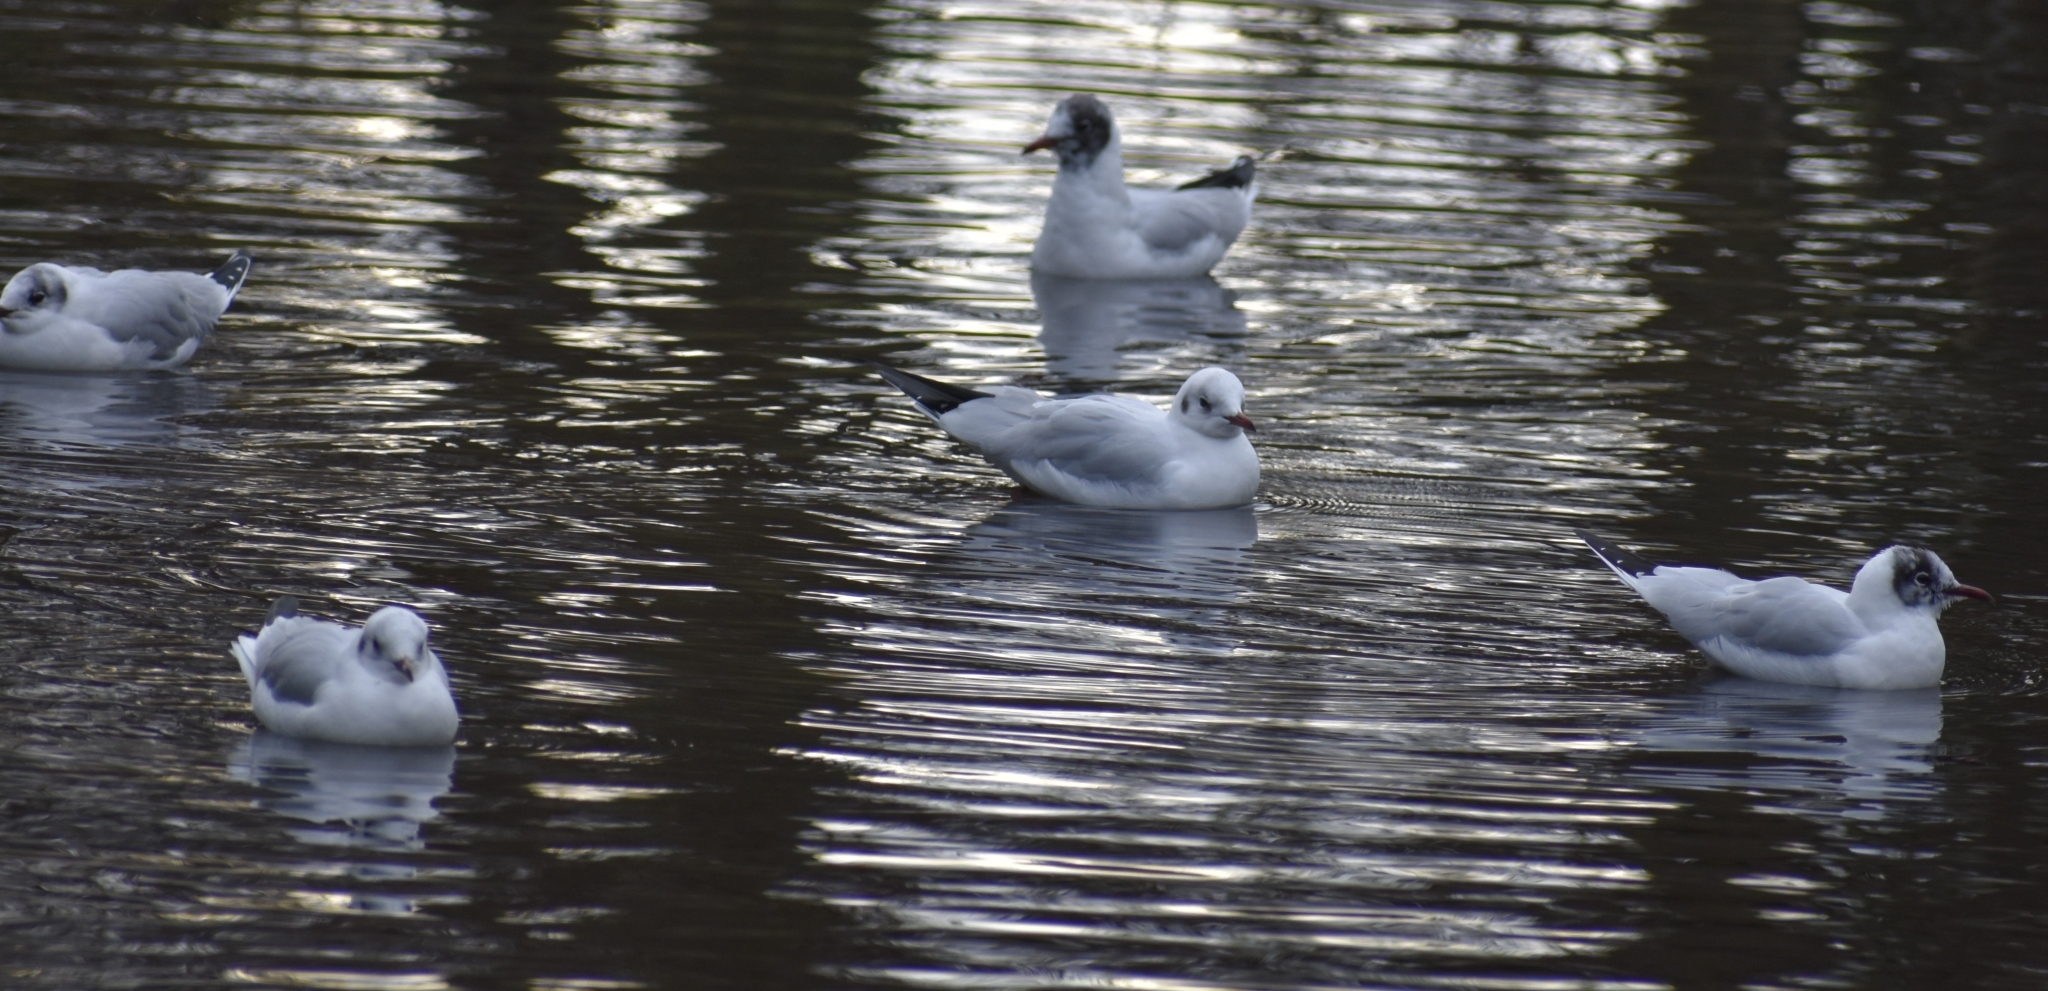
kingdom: Animalia
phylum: Chordata
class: Aves
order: Charadriiformes
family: Laridae
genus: Chroicocephalus
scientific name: Chroicocephalus ridibundus
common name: Black-headed gull
